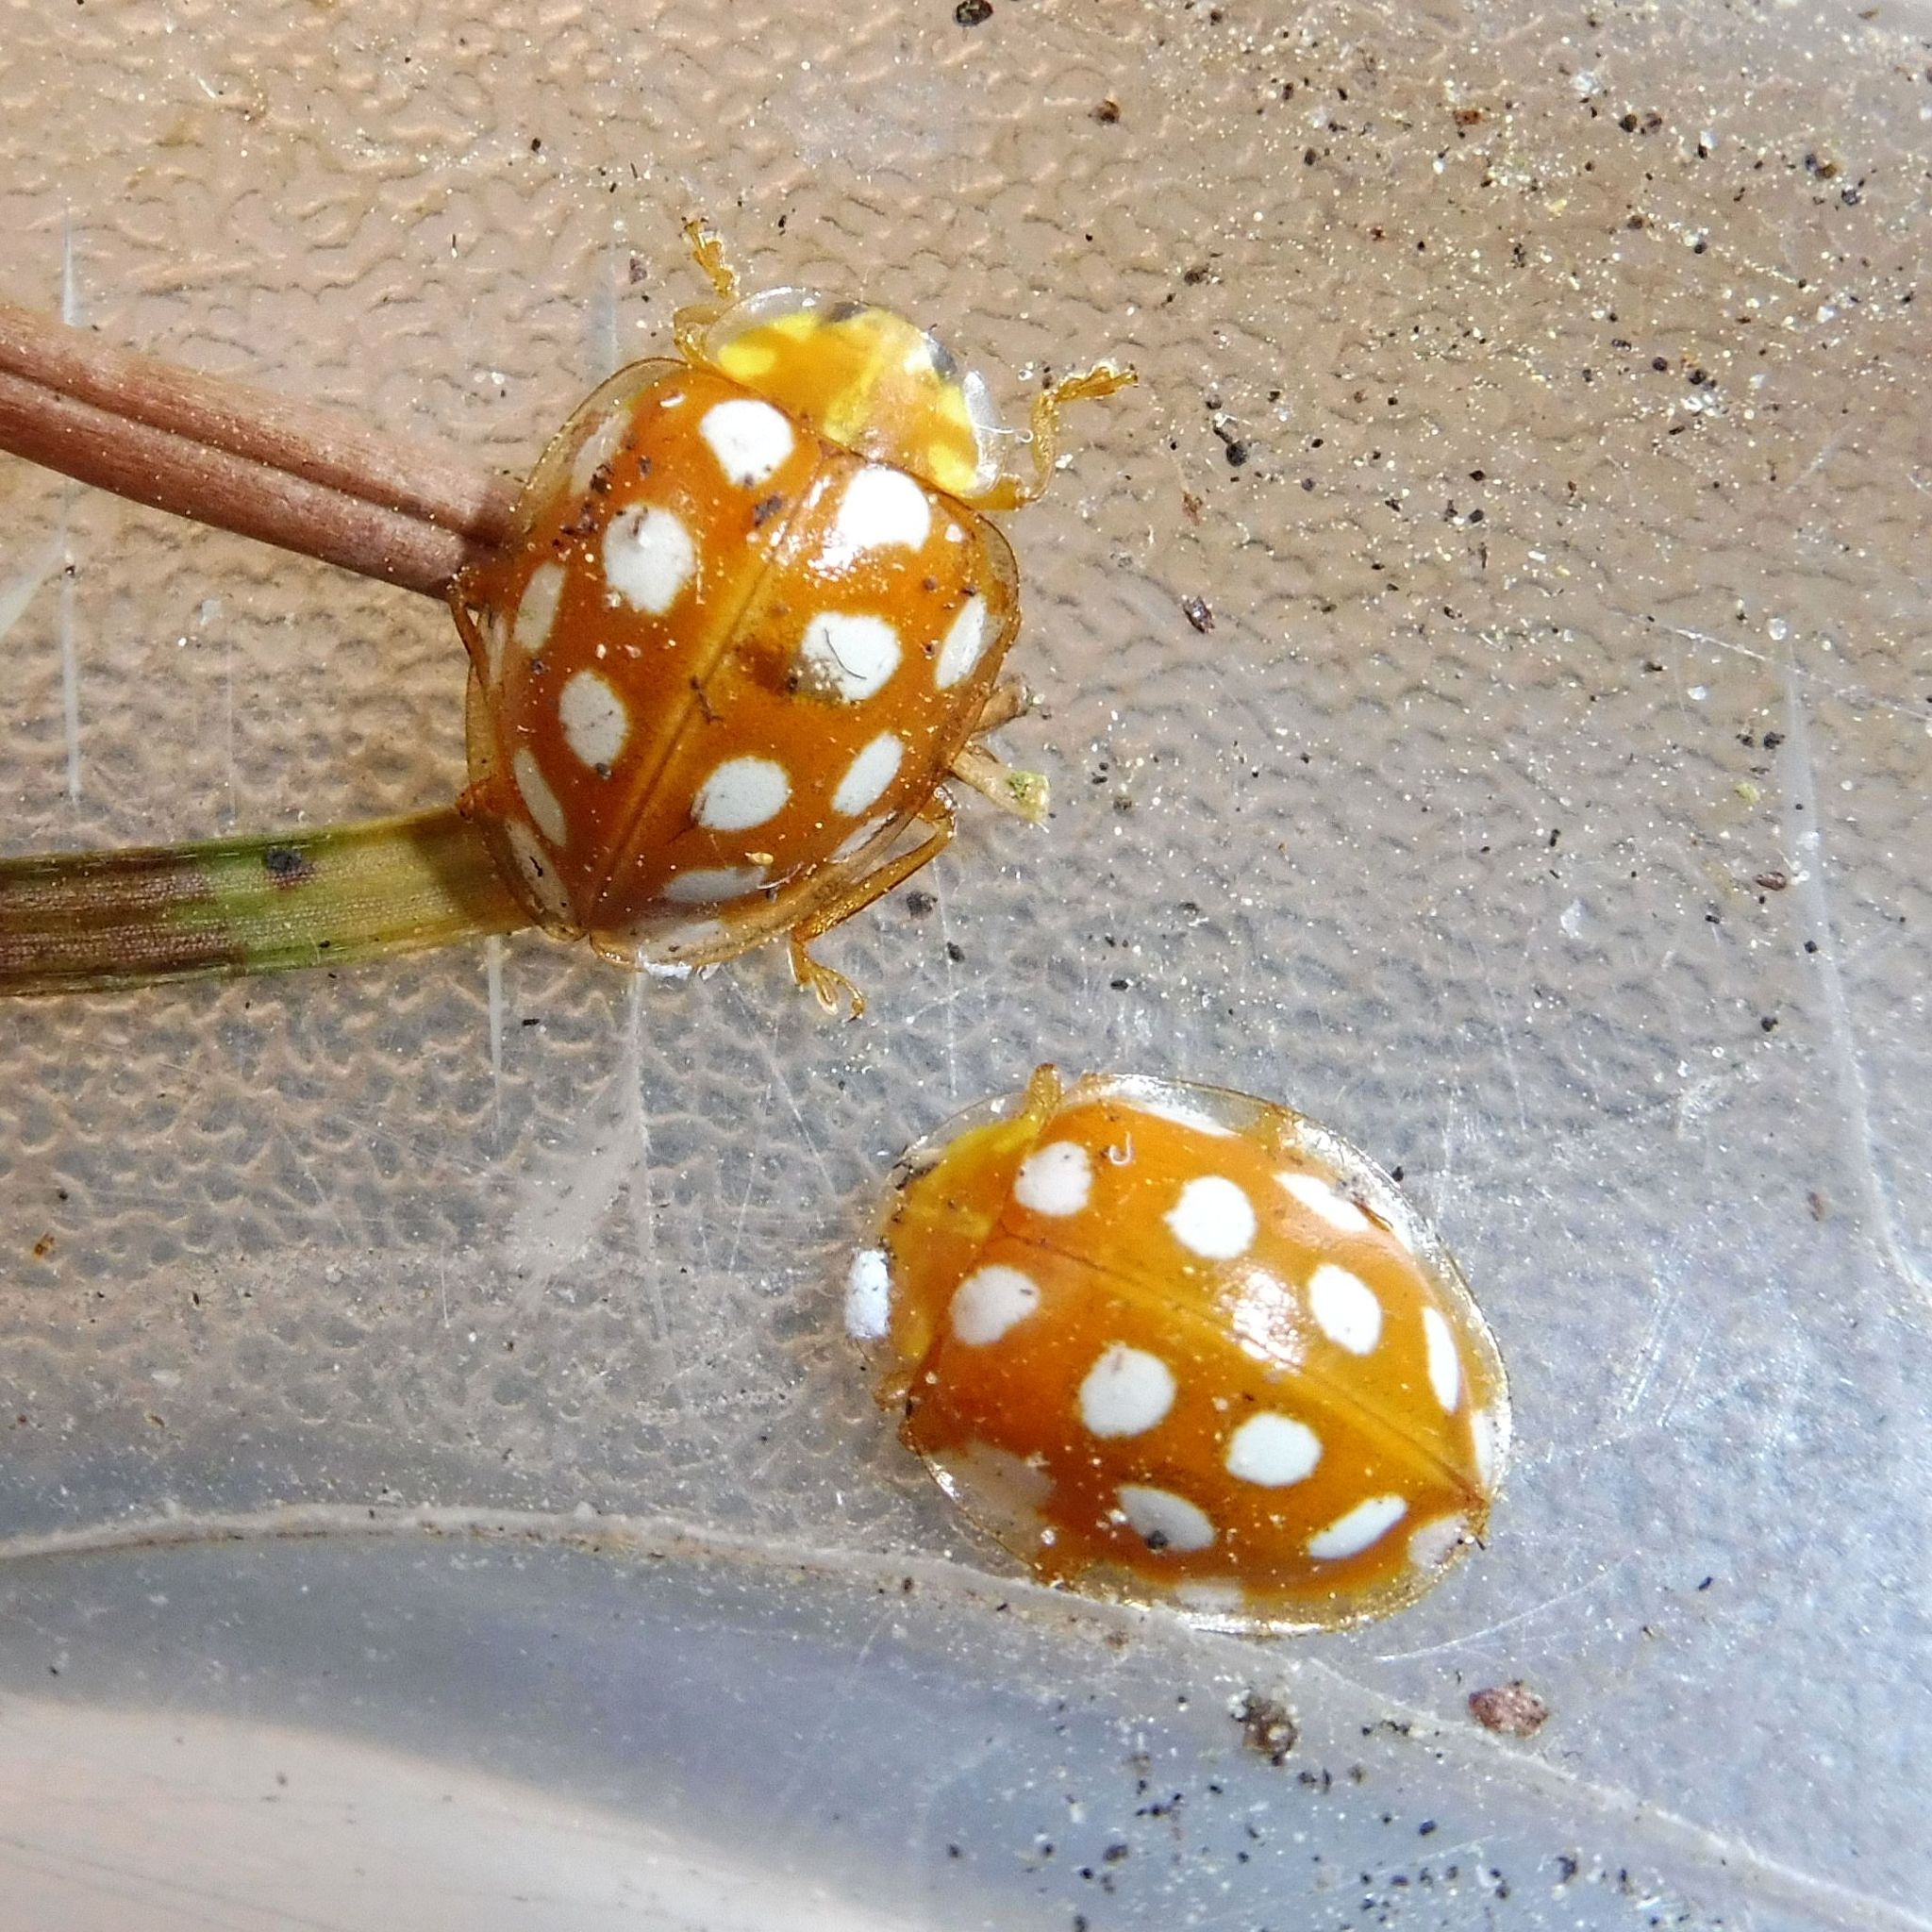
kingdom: Animalia
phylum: Arthropoda
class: Insecta
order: Coleoptera
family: Coccinellidae
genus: Halyzia
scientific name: Halyzia sedecimguttata
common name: Orange ladybird
